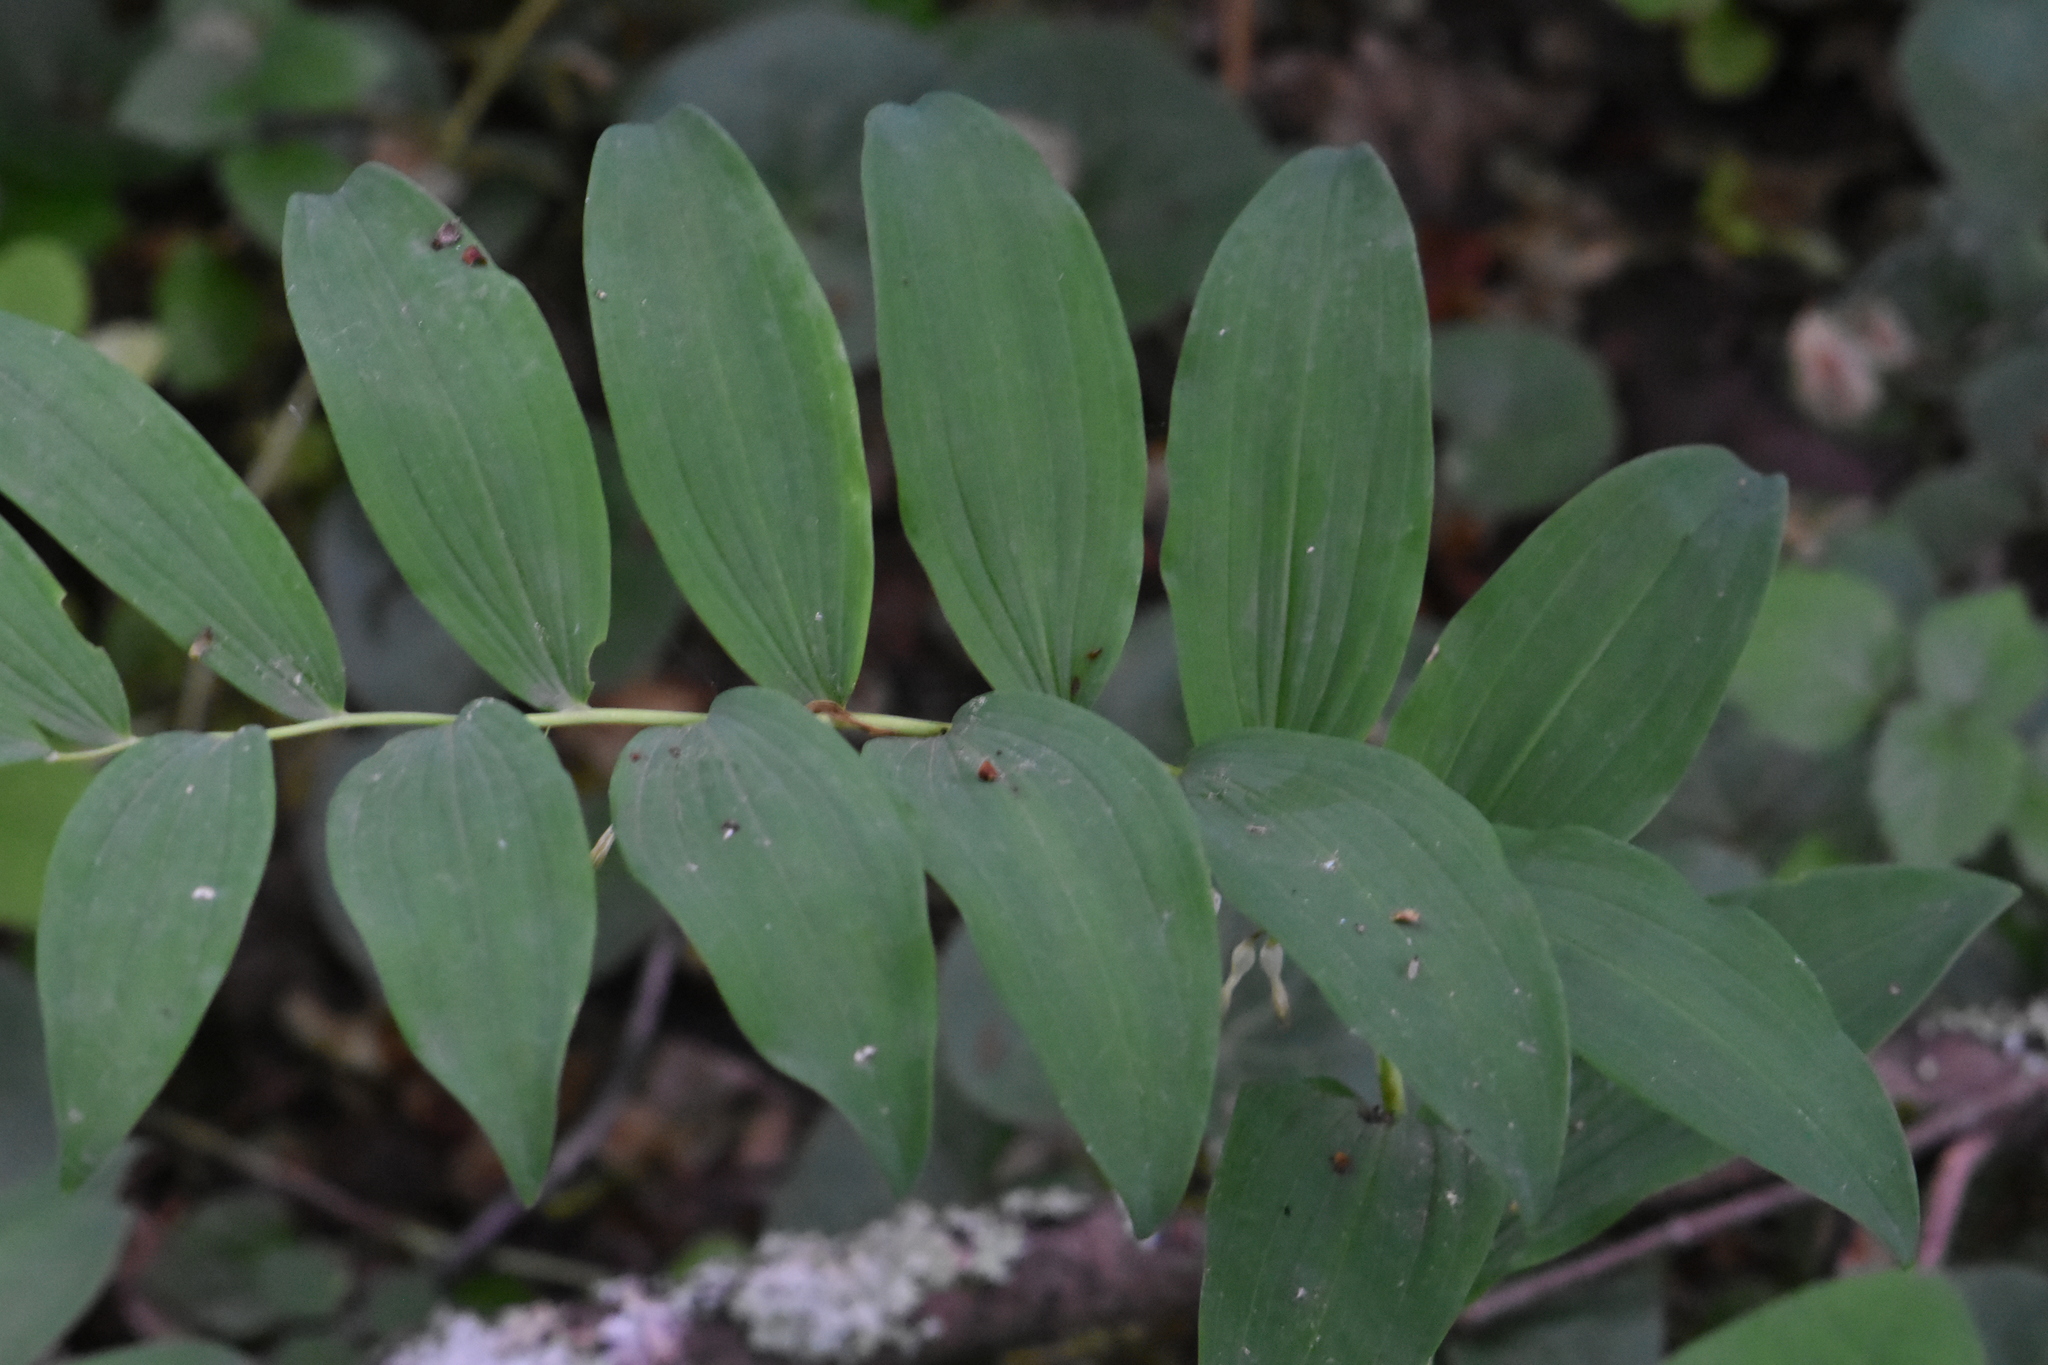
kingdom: Plantae
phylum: Tracheophyta
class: Liliopsida
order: Asparagales
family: Asparagaceae
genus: Polygonatum
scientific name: Polygonatum multiflorum
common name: Solomon's-seal
